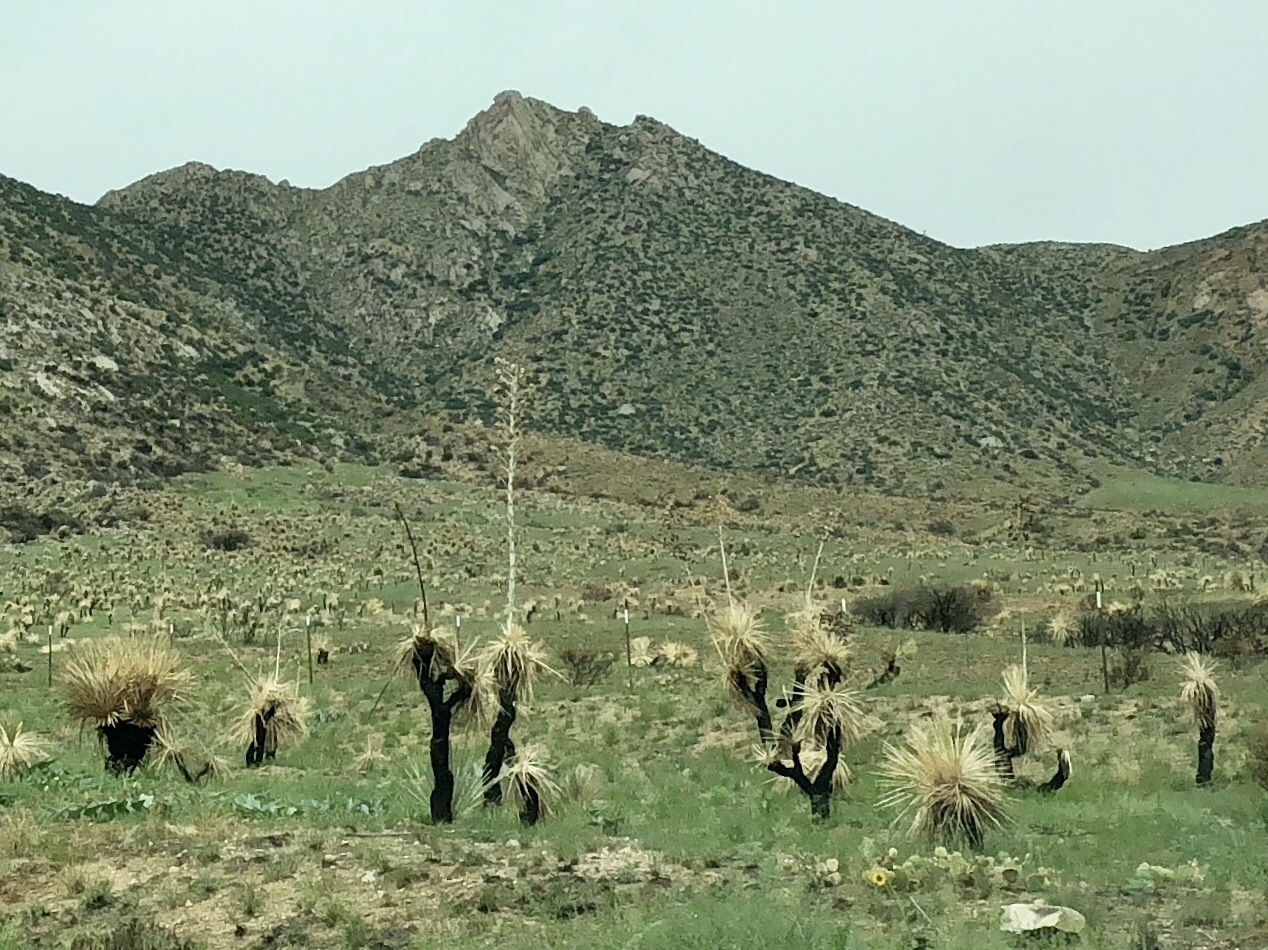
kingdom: Plantae
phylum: Tracheophyta
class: Liliopsida
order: Asparagales
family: Asparagaceae
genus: Yucca
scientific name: Yucca elata
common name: Palmella
